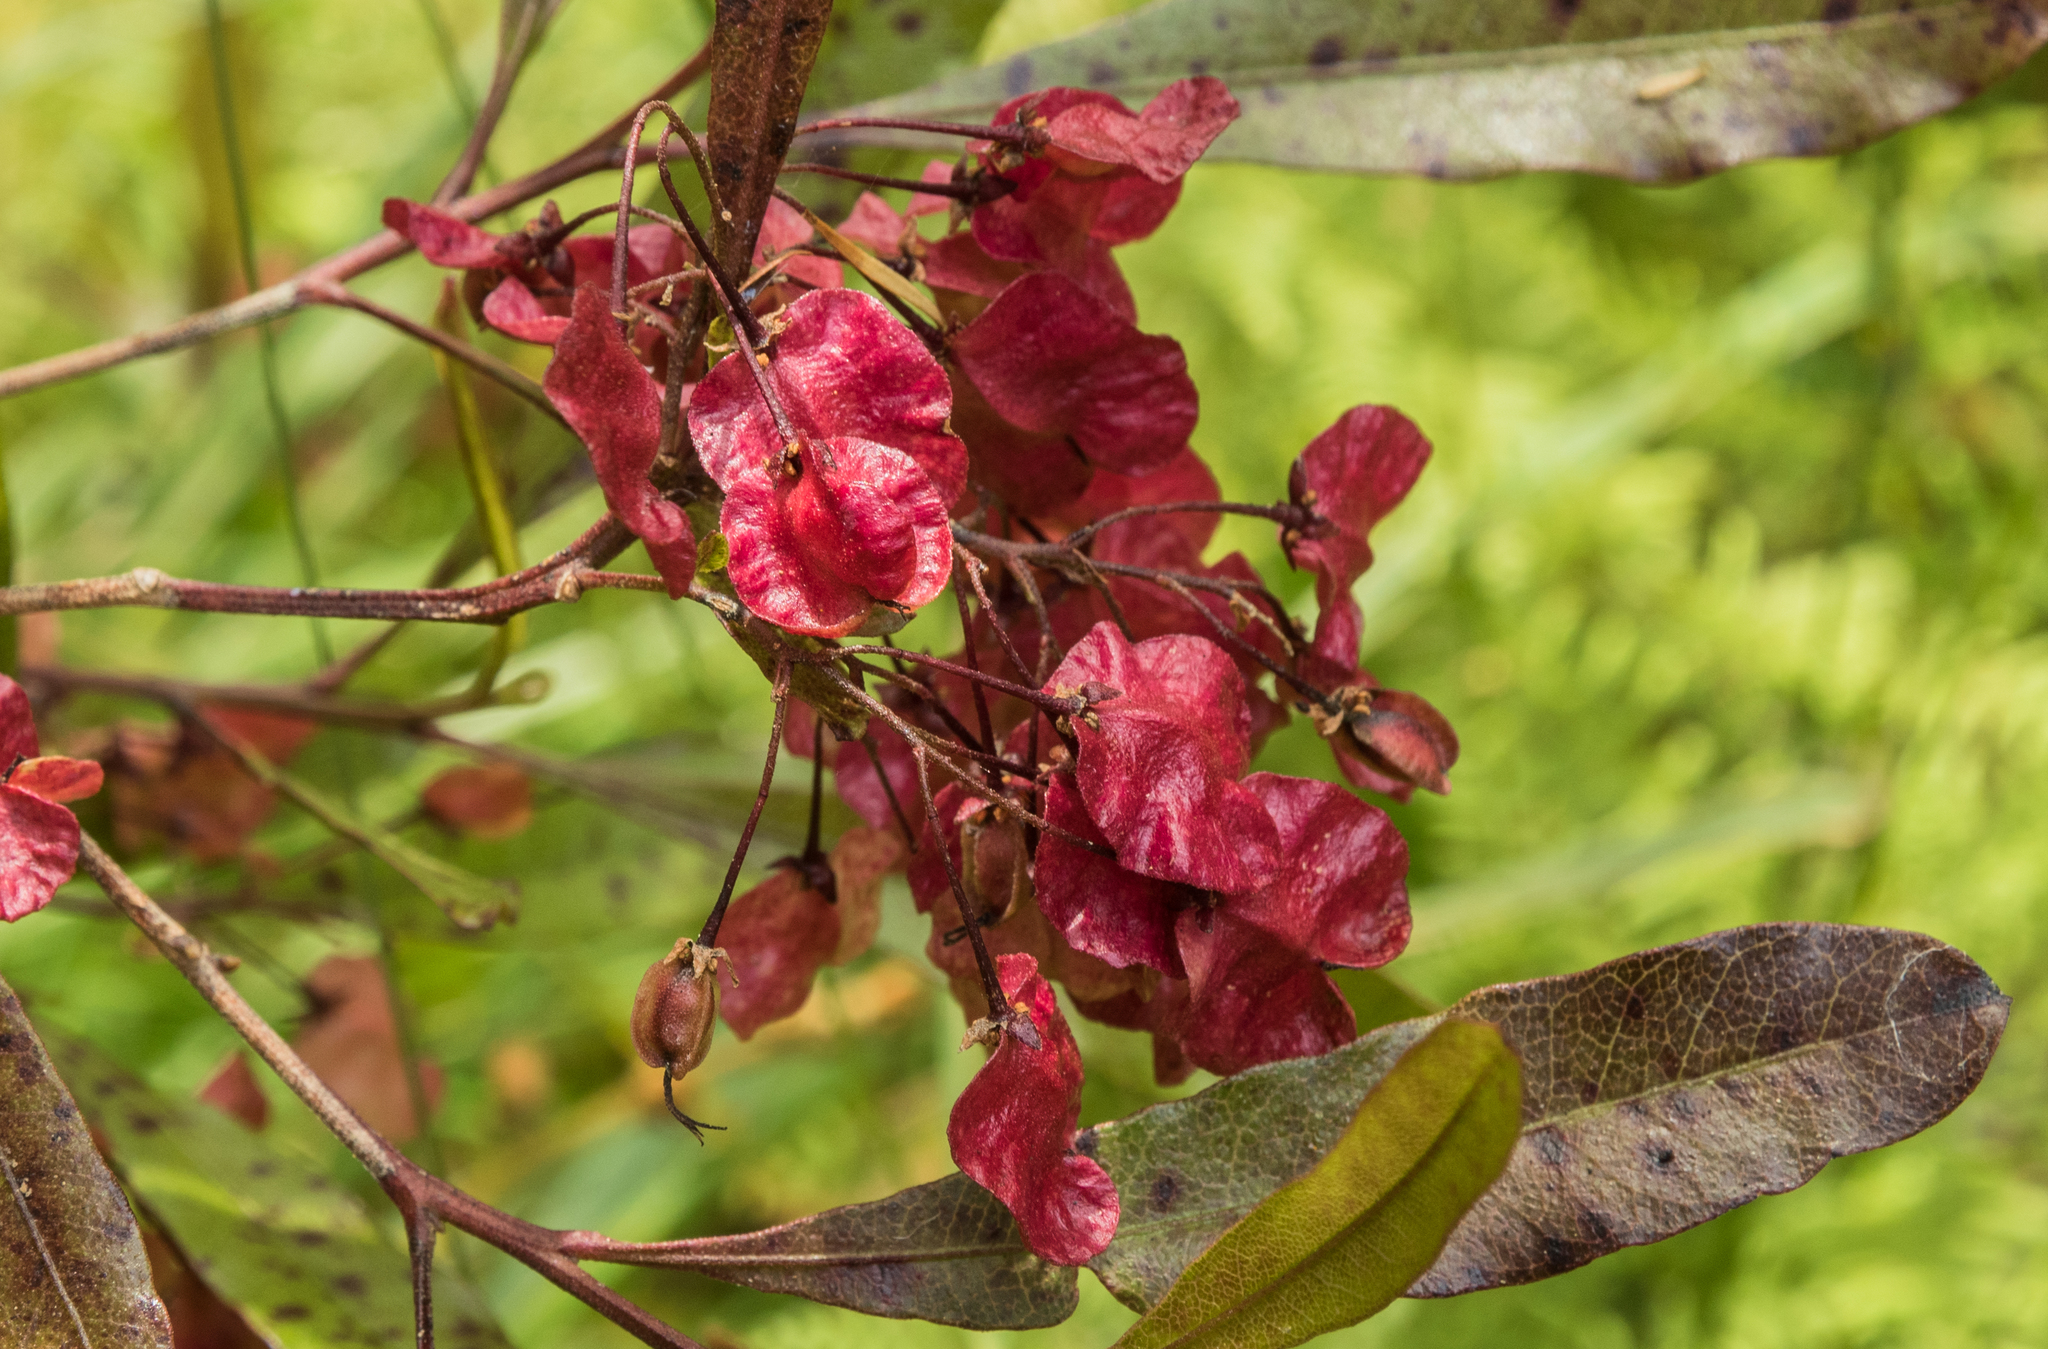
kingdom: Plantae
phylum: Tracheophyta
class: Magnoliopsida
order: Sapindales
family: Sapindaceae
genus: Dodonaea
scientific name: Dodonaea viscosa
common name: Hopbush
